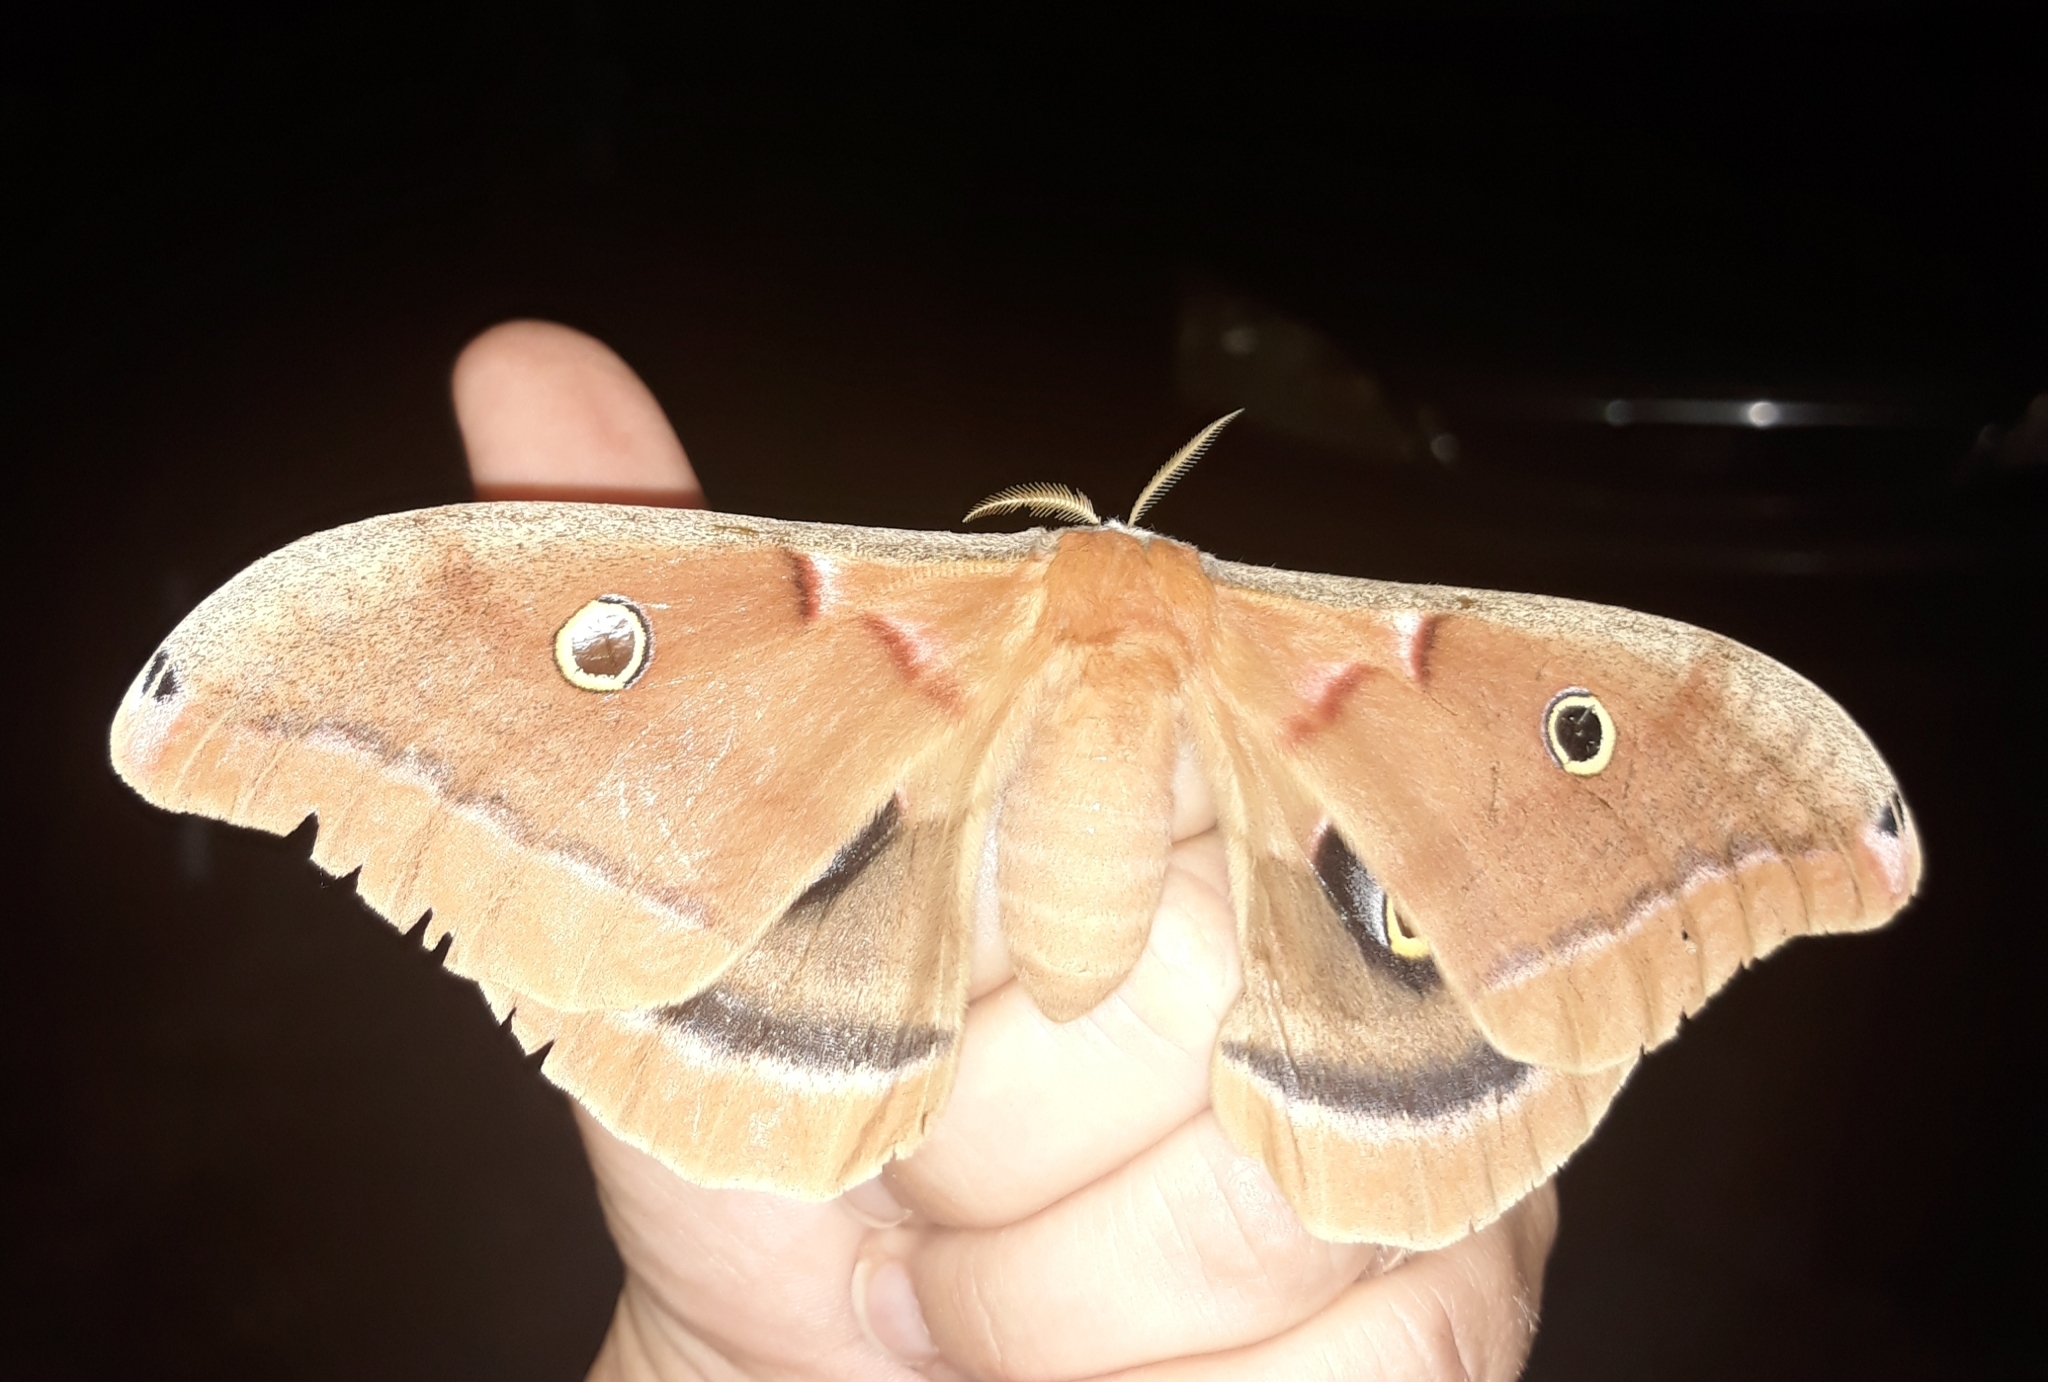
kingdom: Animalia
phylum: Arthropoda
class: Insecta
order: Lepidoptera
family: Saturniidae
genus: Antheraea
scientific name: Antheraea polyphemus
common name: Polyphemus moth
